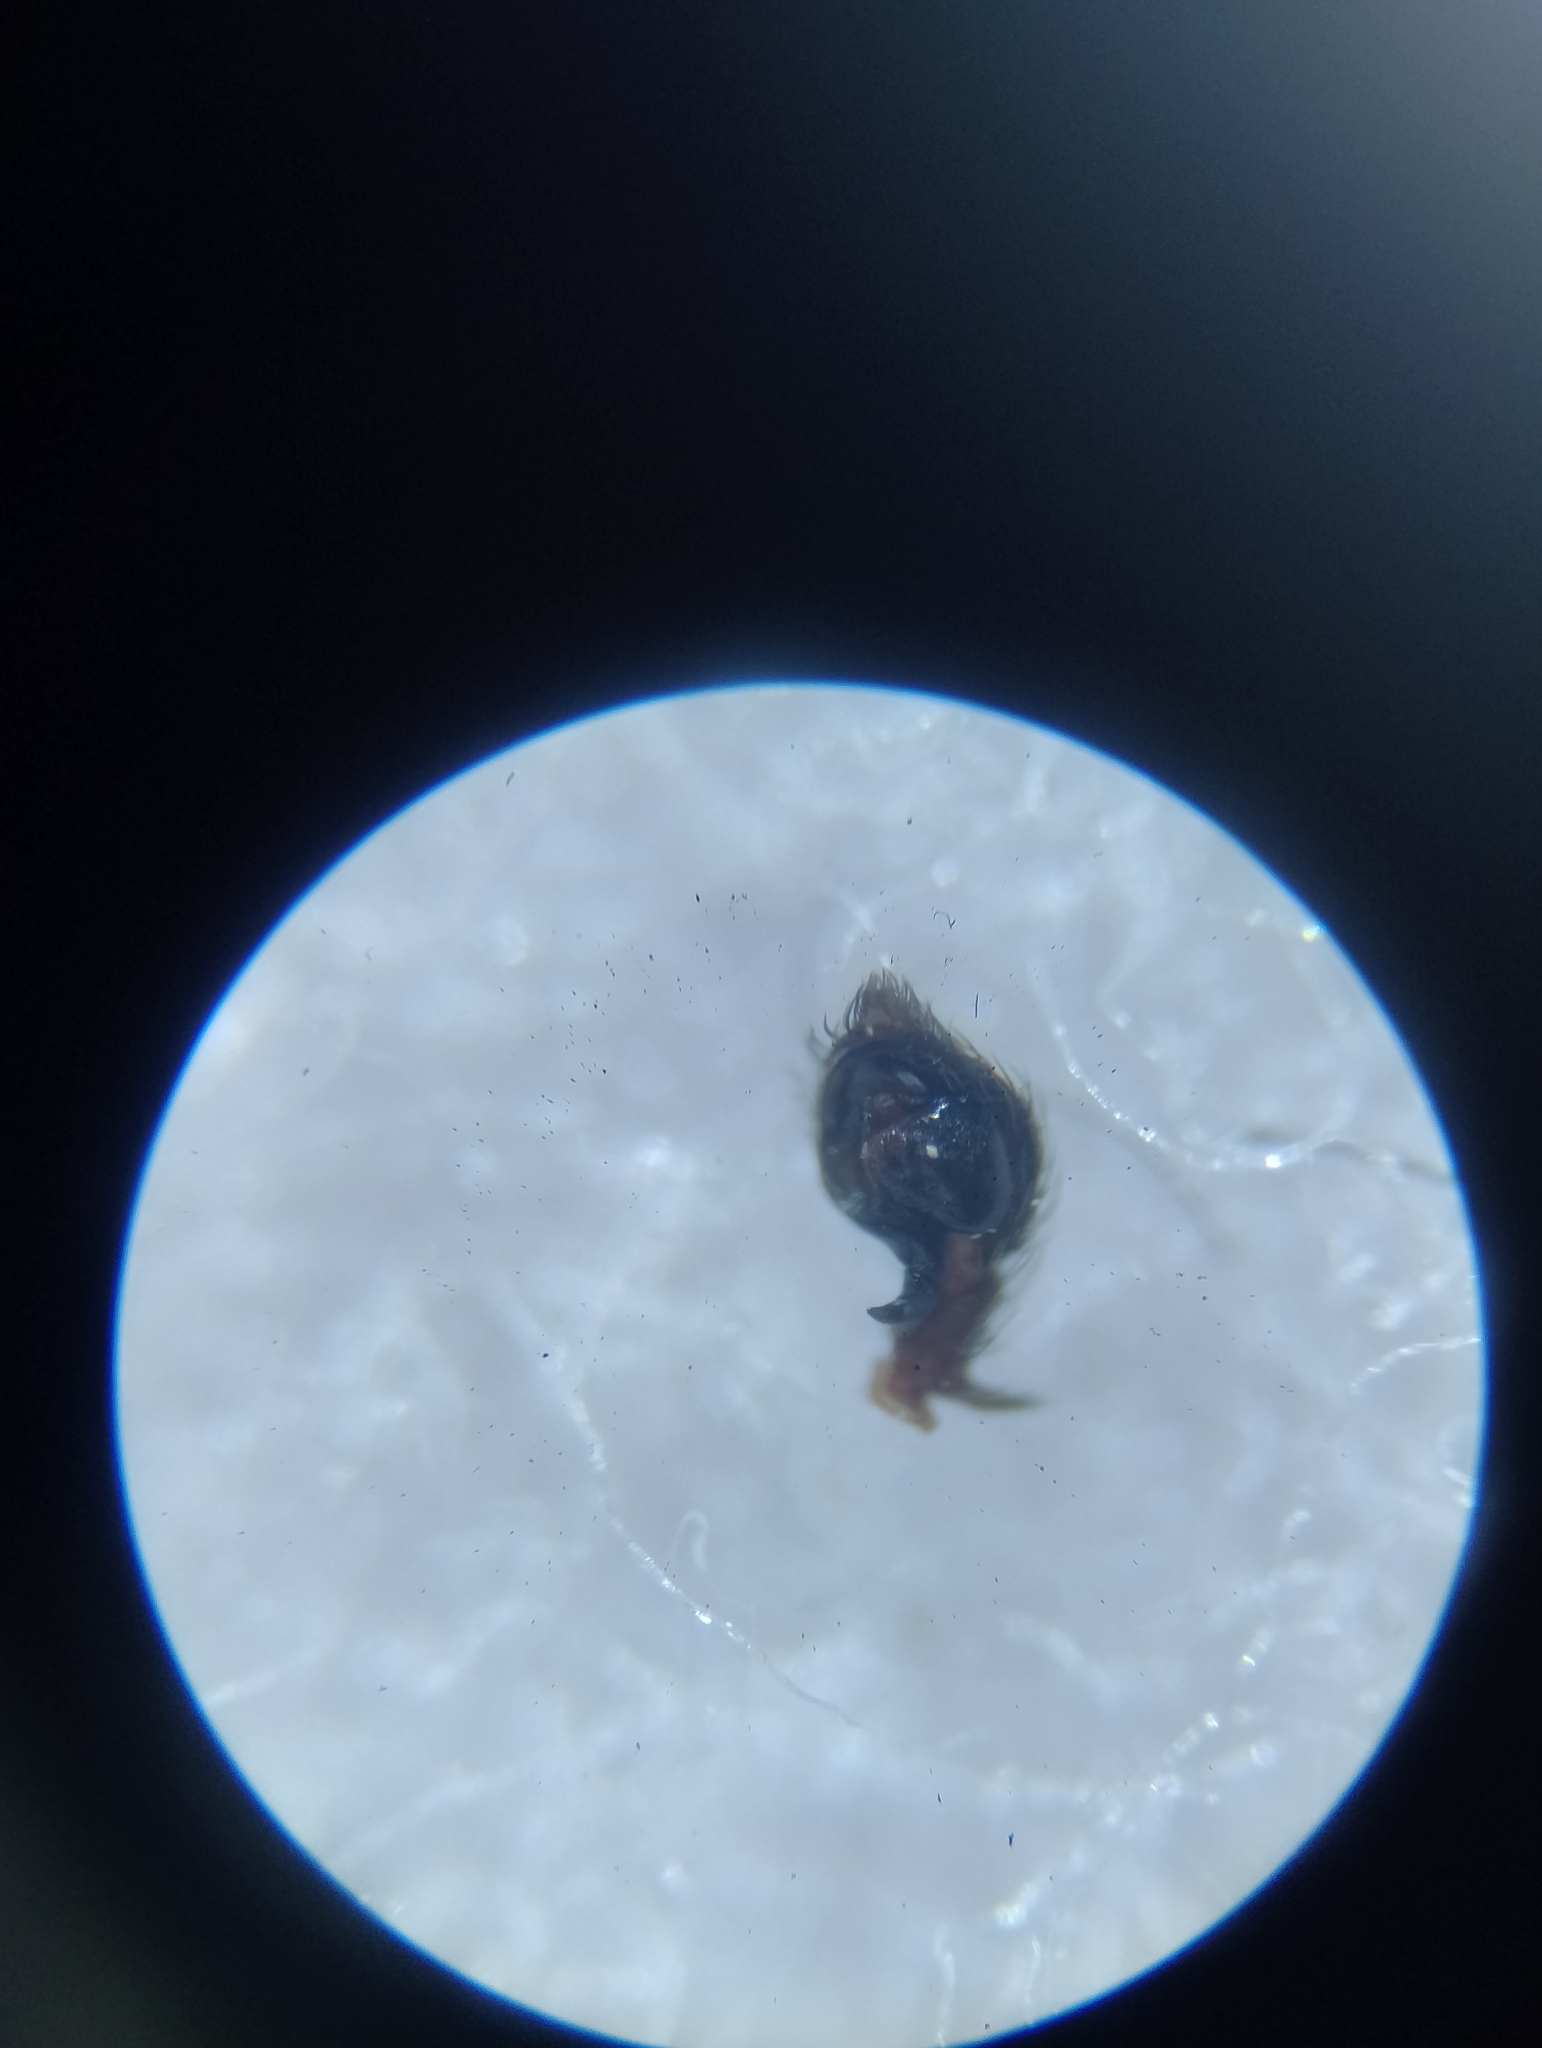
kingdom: Animalia
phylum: Arthropoda
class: Arachnida
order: Araneae
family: Dictynidae
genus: Dictyna
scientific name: Dictyna uncinata
